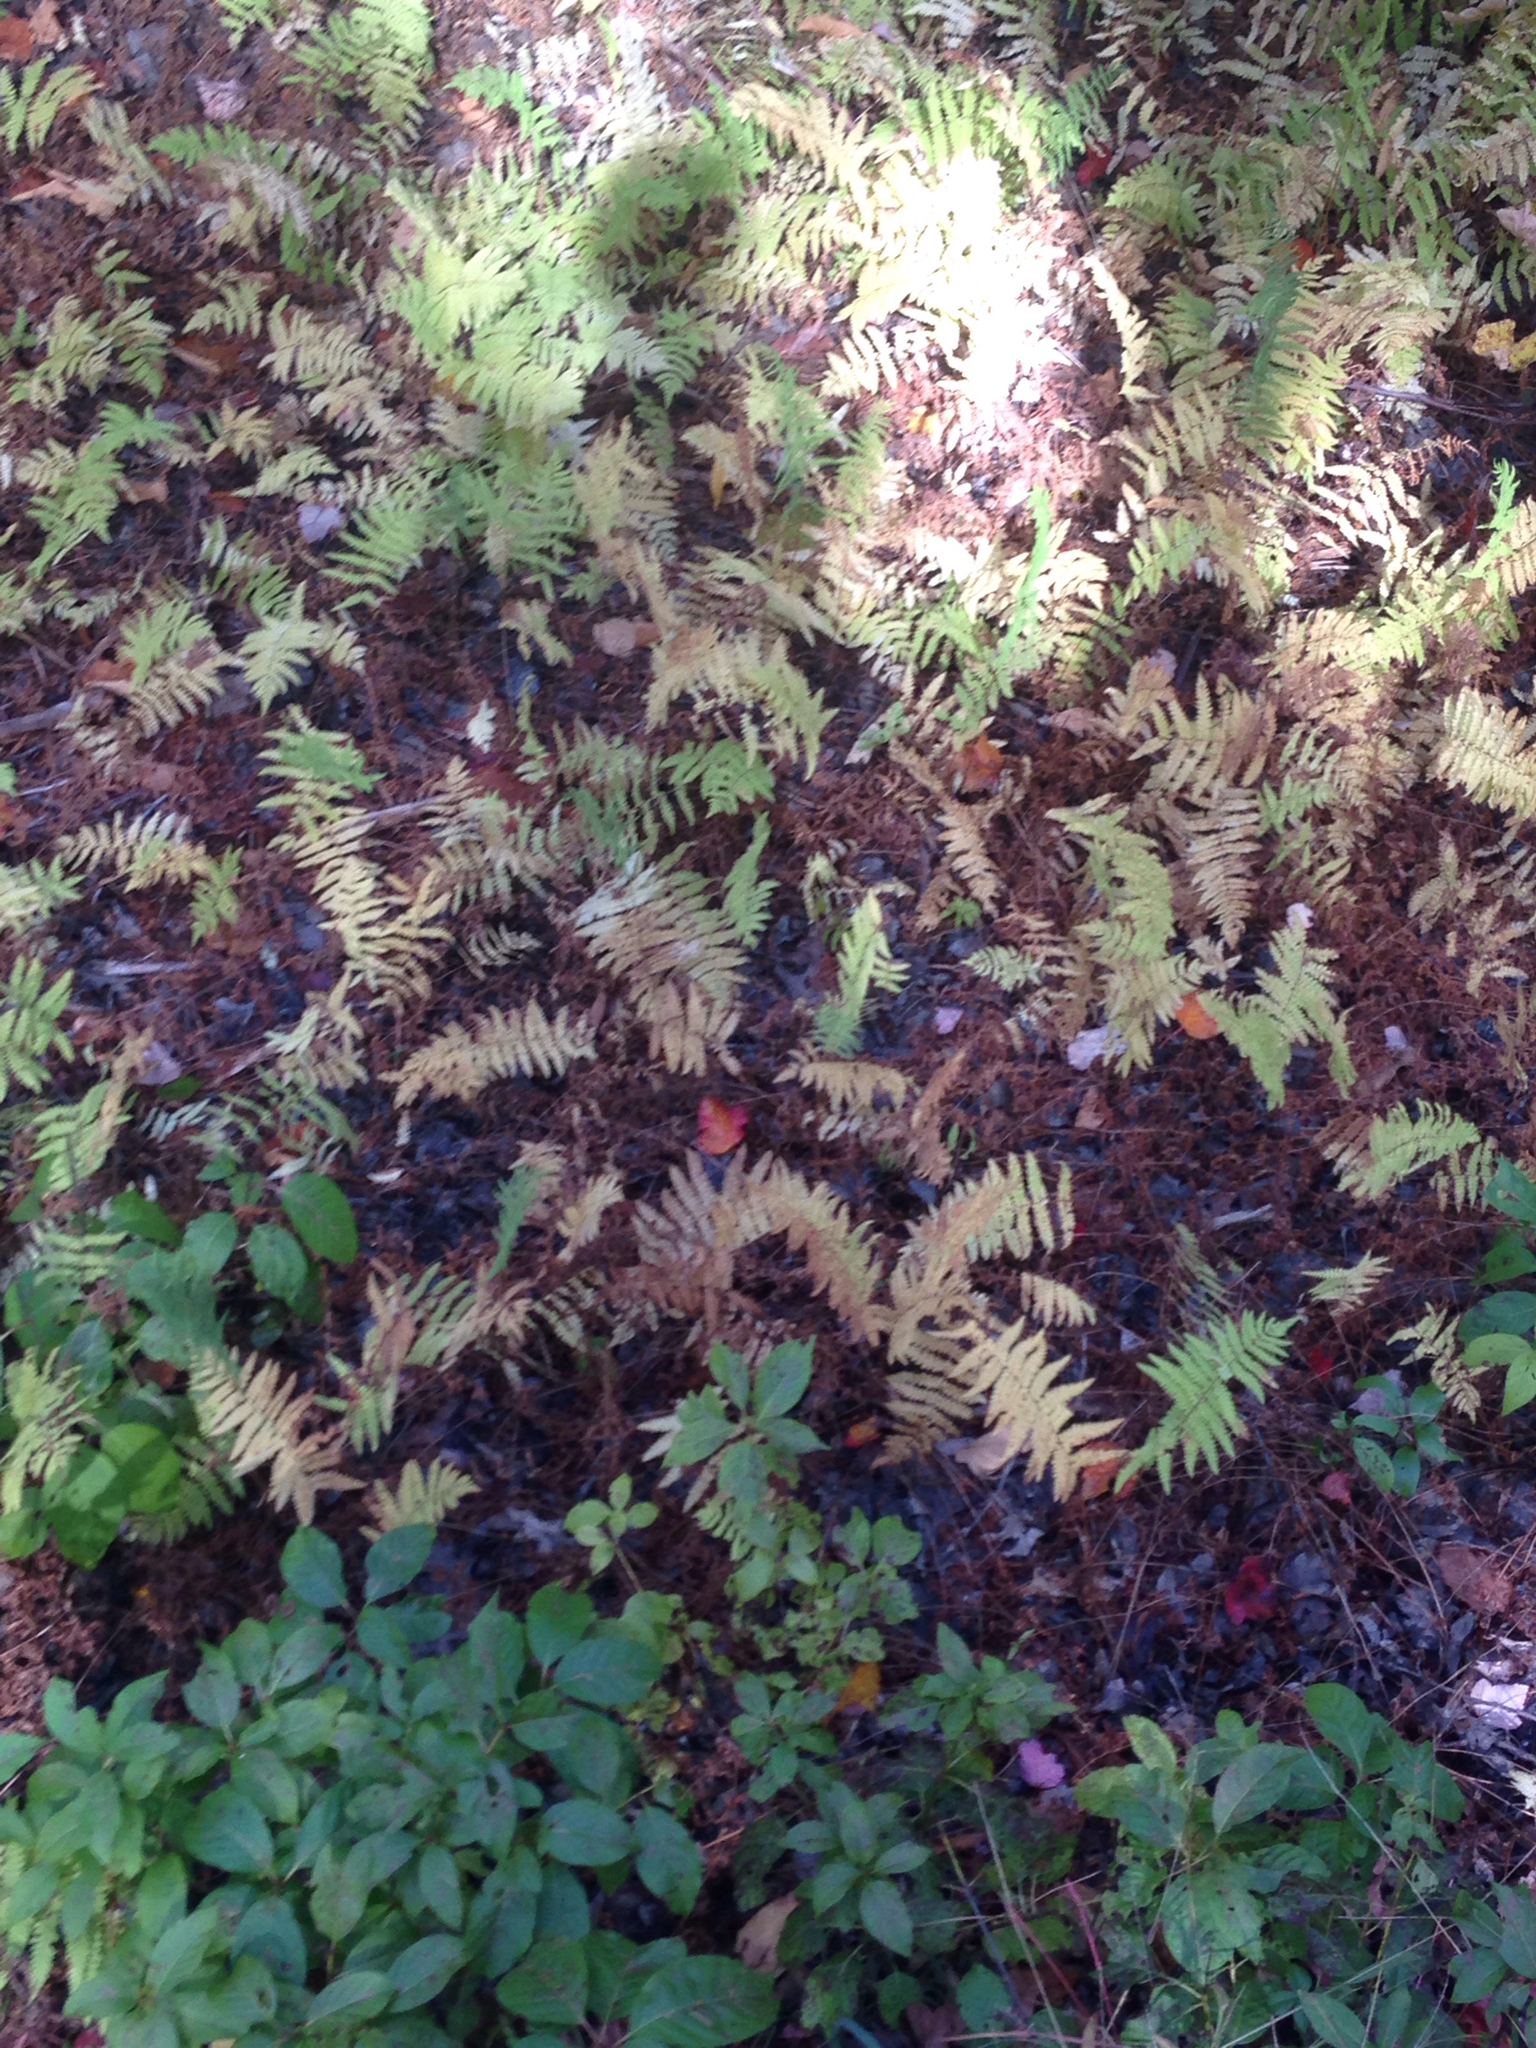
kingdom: Plantae
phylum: Tracheophyta
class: Polypodiopsida
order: Polypodiales
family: Thelypteridaceae
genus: Thelypteris
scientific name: Thelypteris palustris
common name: Marsh fern
